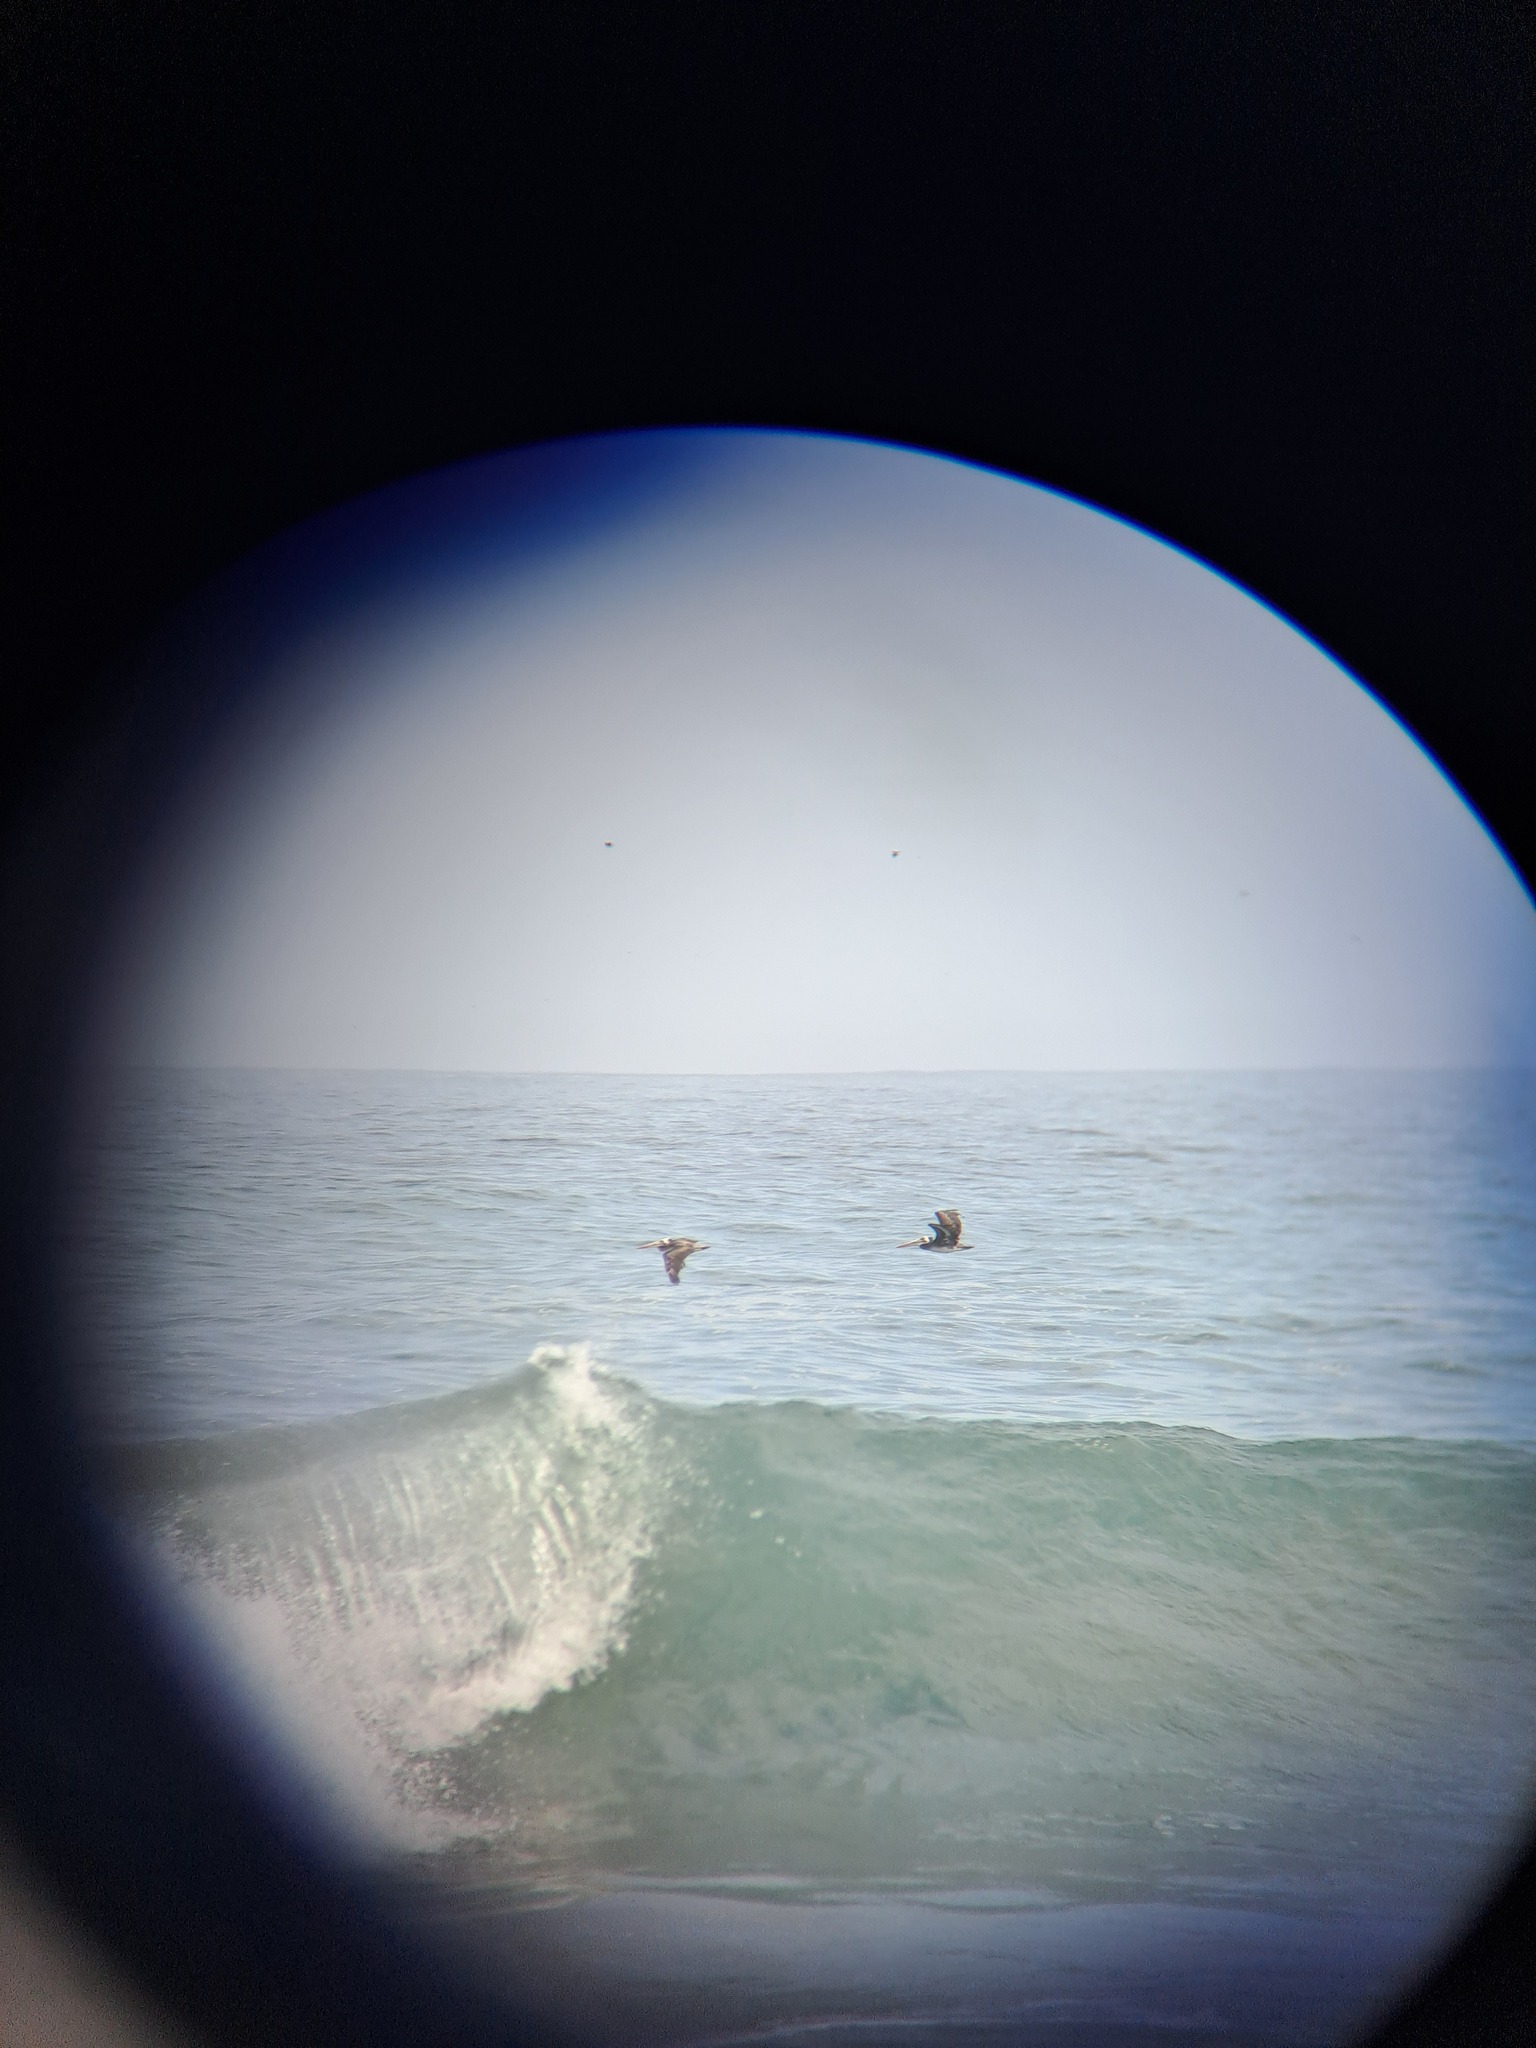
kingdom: Animalia
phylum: Chordata
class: Aves
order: Pelecaniformes
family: Pelecanidae
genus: Pelecanus
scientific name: Pelecanus thagus
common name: Peruvian pelican
